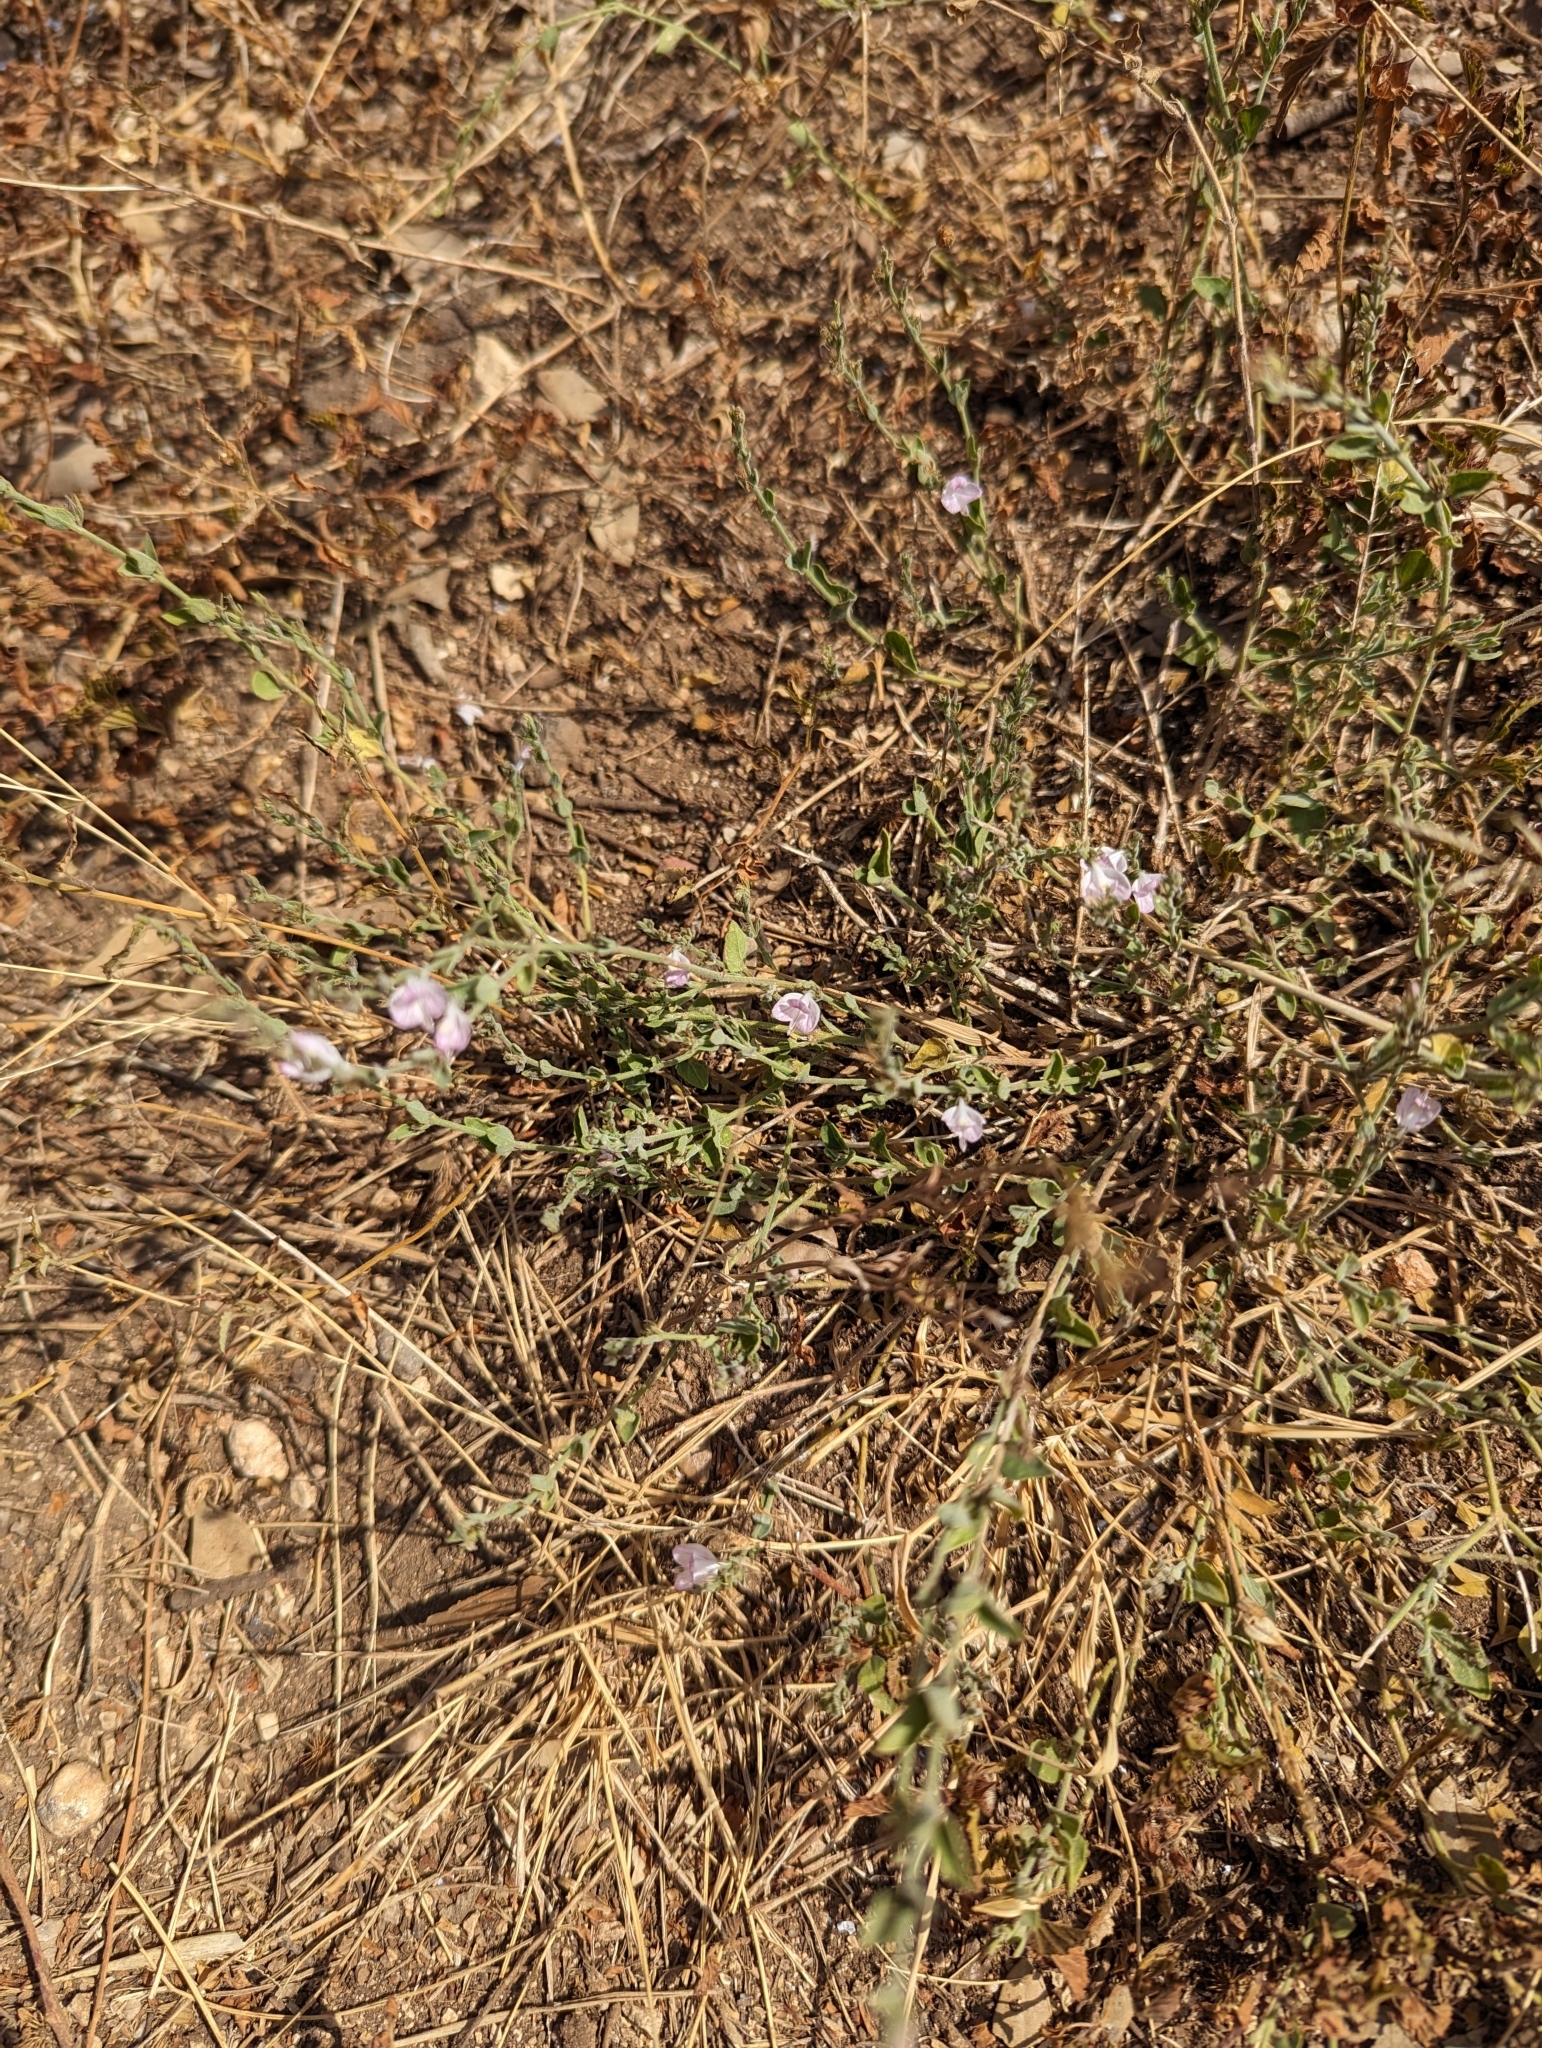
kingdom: Plantae
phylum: Tracheophyta
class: Magnoliopsida
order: Lamiales
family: Acanthaceae
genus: Carlowrightia
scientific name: Carlowrightia texana
